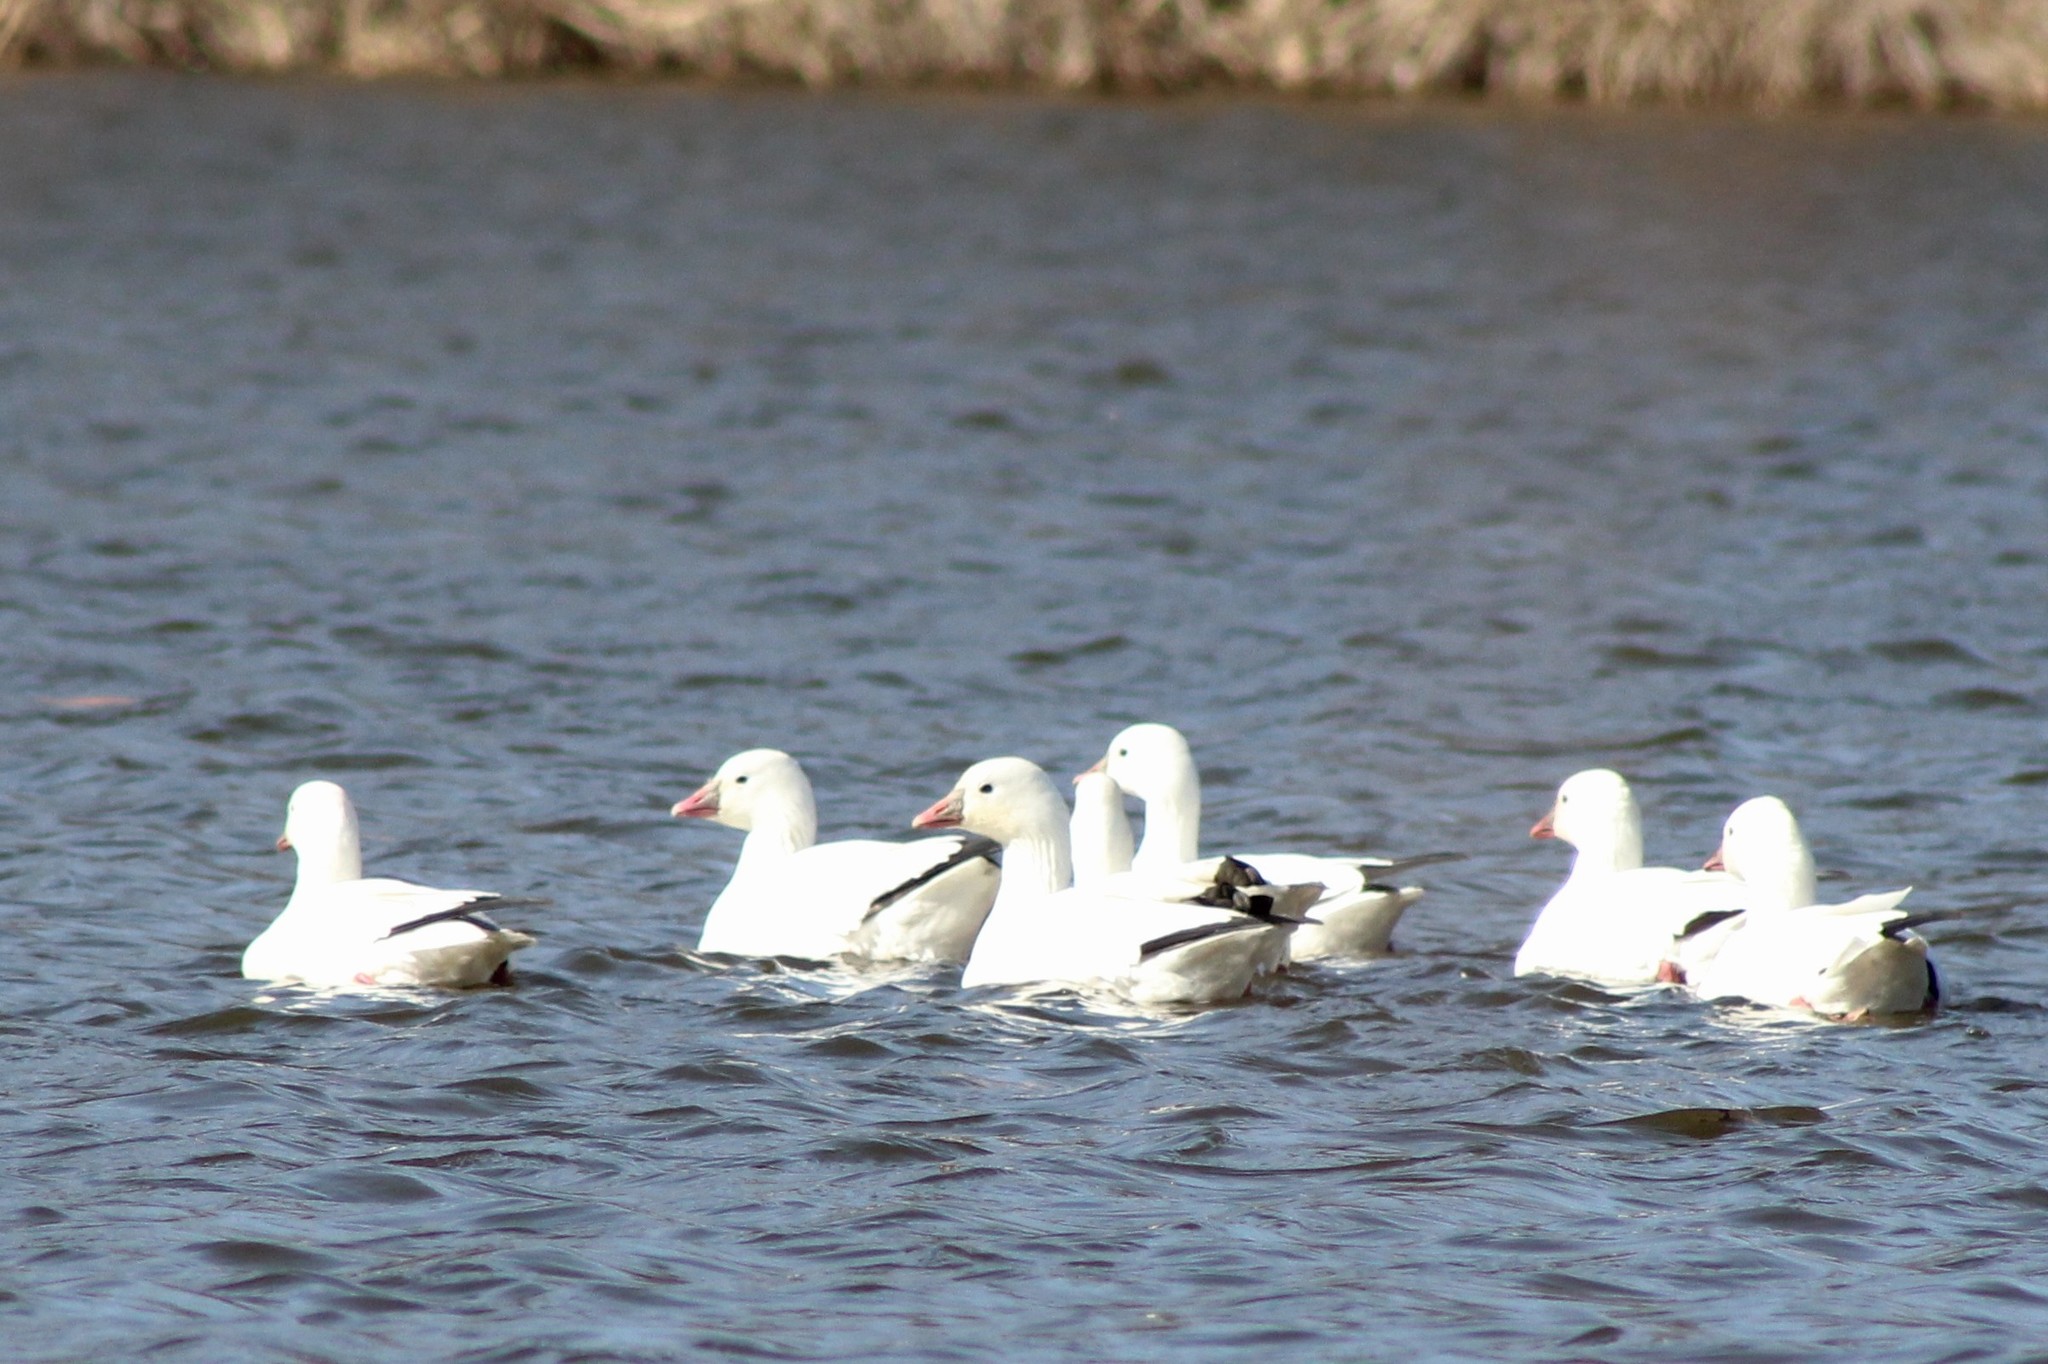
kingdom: Animalia
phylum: Chordata
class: Aves
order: Anseriformes
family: Anatidae
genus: Anser
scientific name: Anser rossii
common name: Ross's goose
